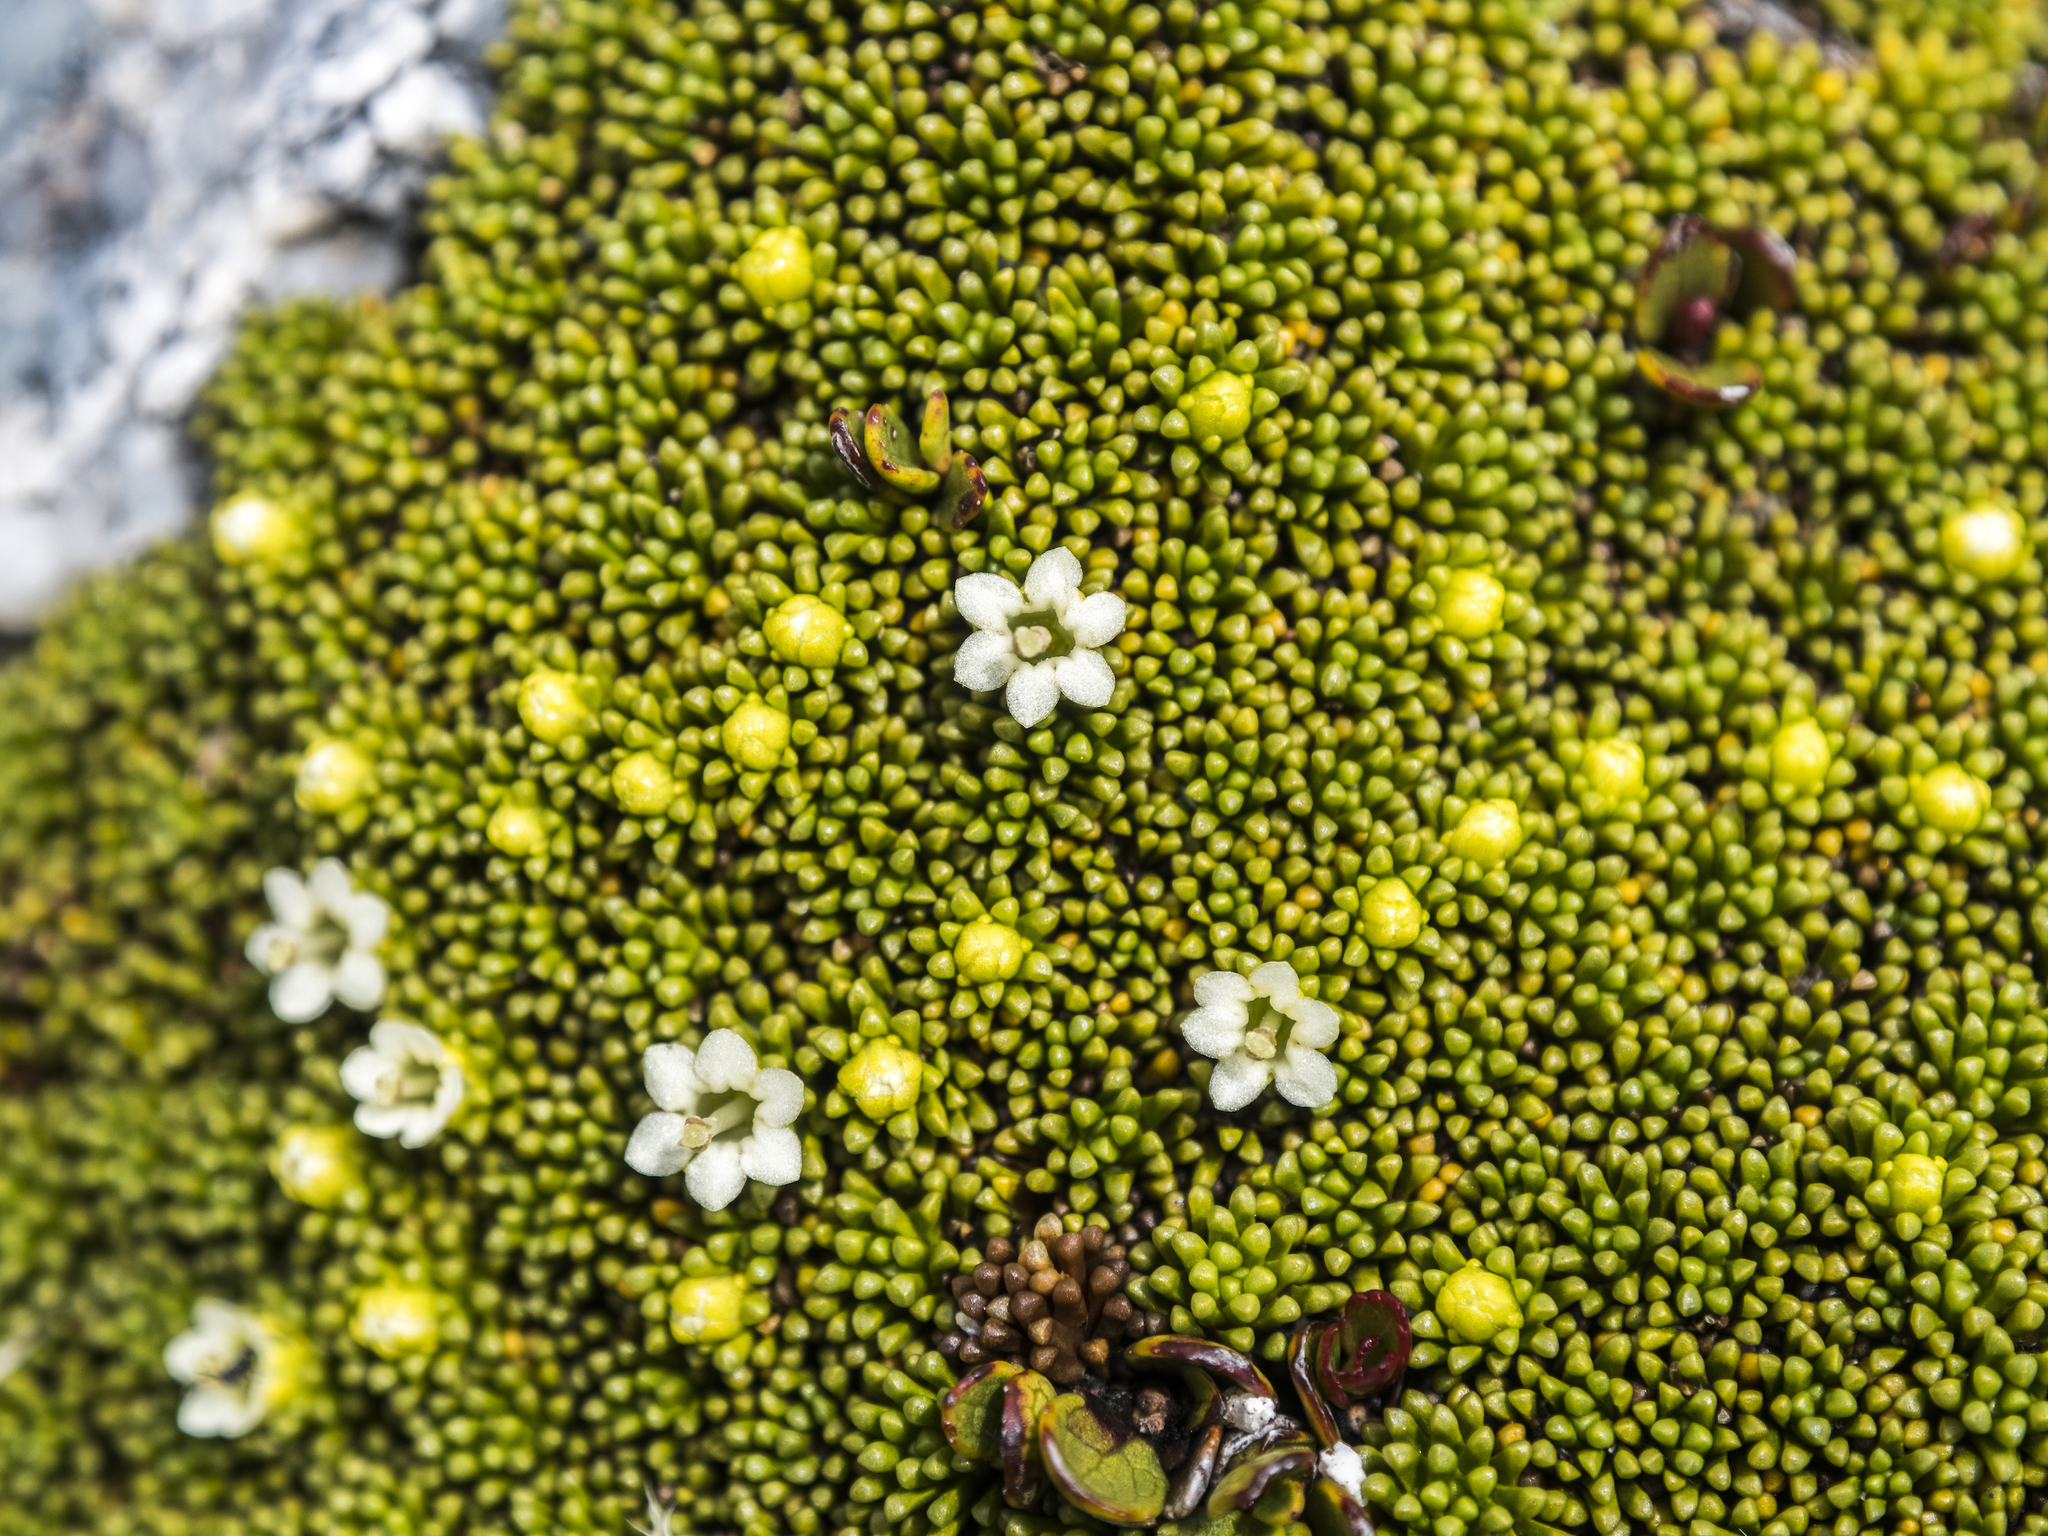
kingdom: Plantae
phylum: Tracheophyta
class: Magnoliopsida
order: Asterales
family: Stylidiaceae
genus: Phyllachne
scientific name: Phyllachne colensoi
